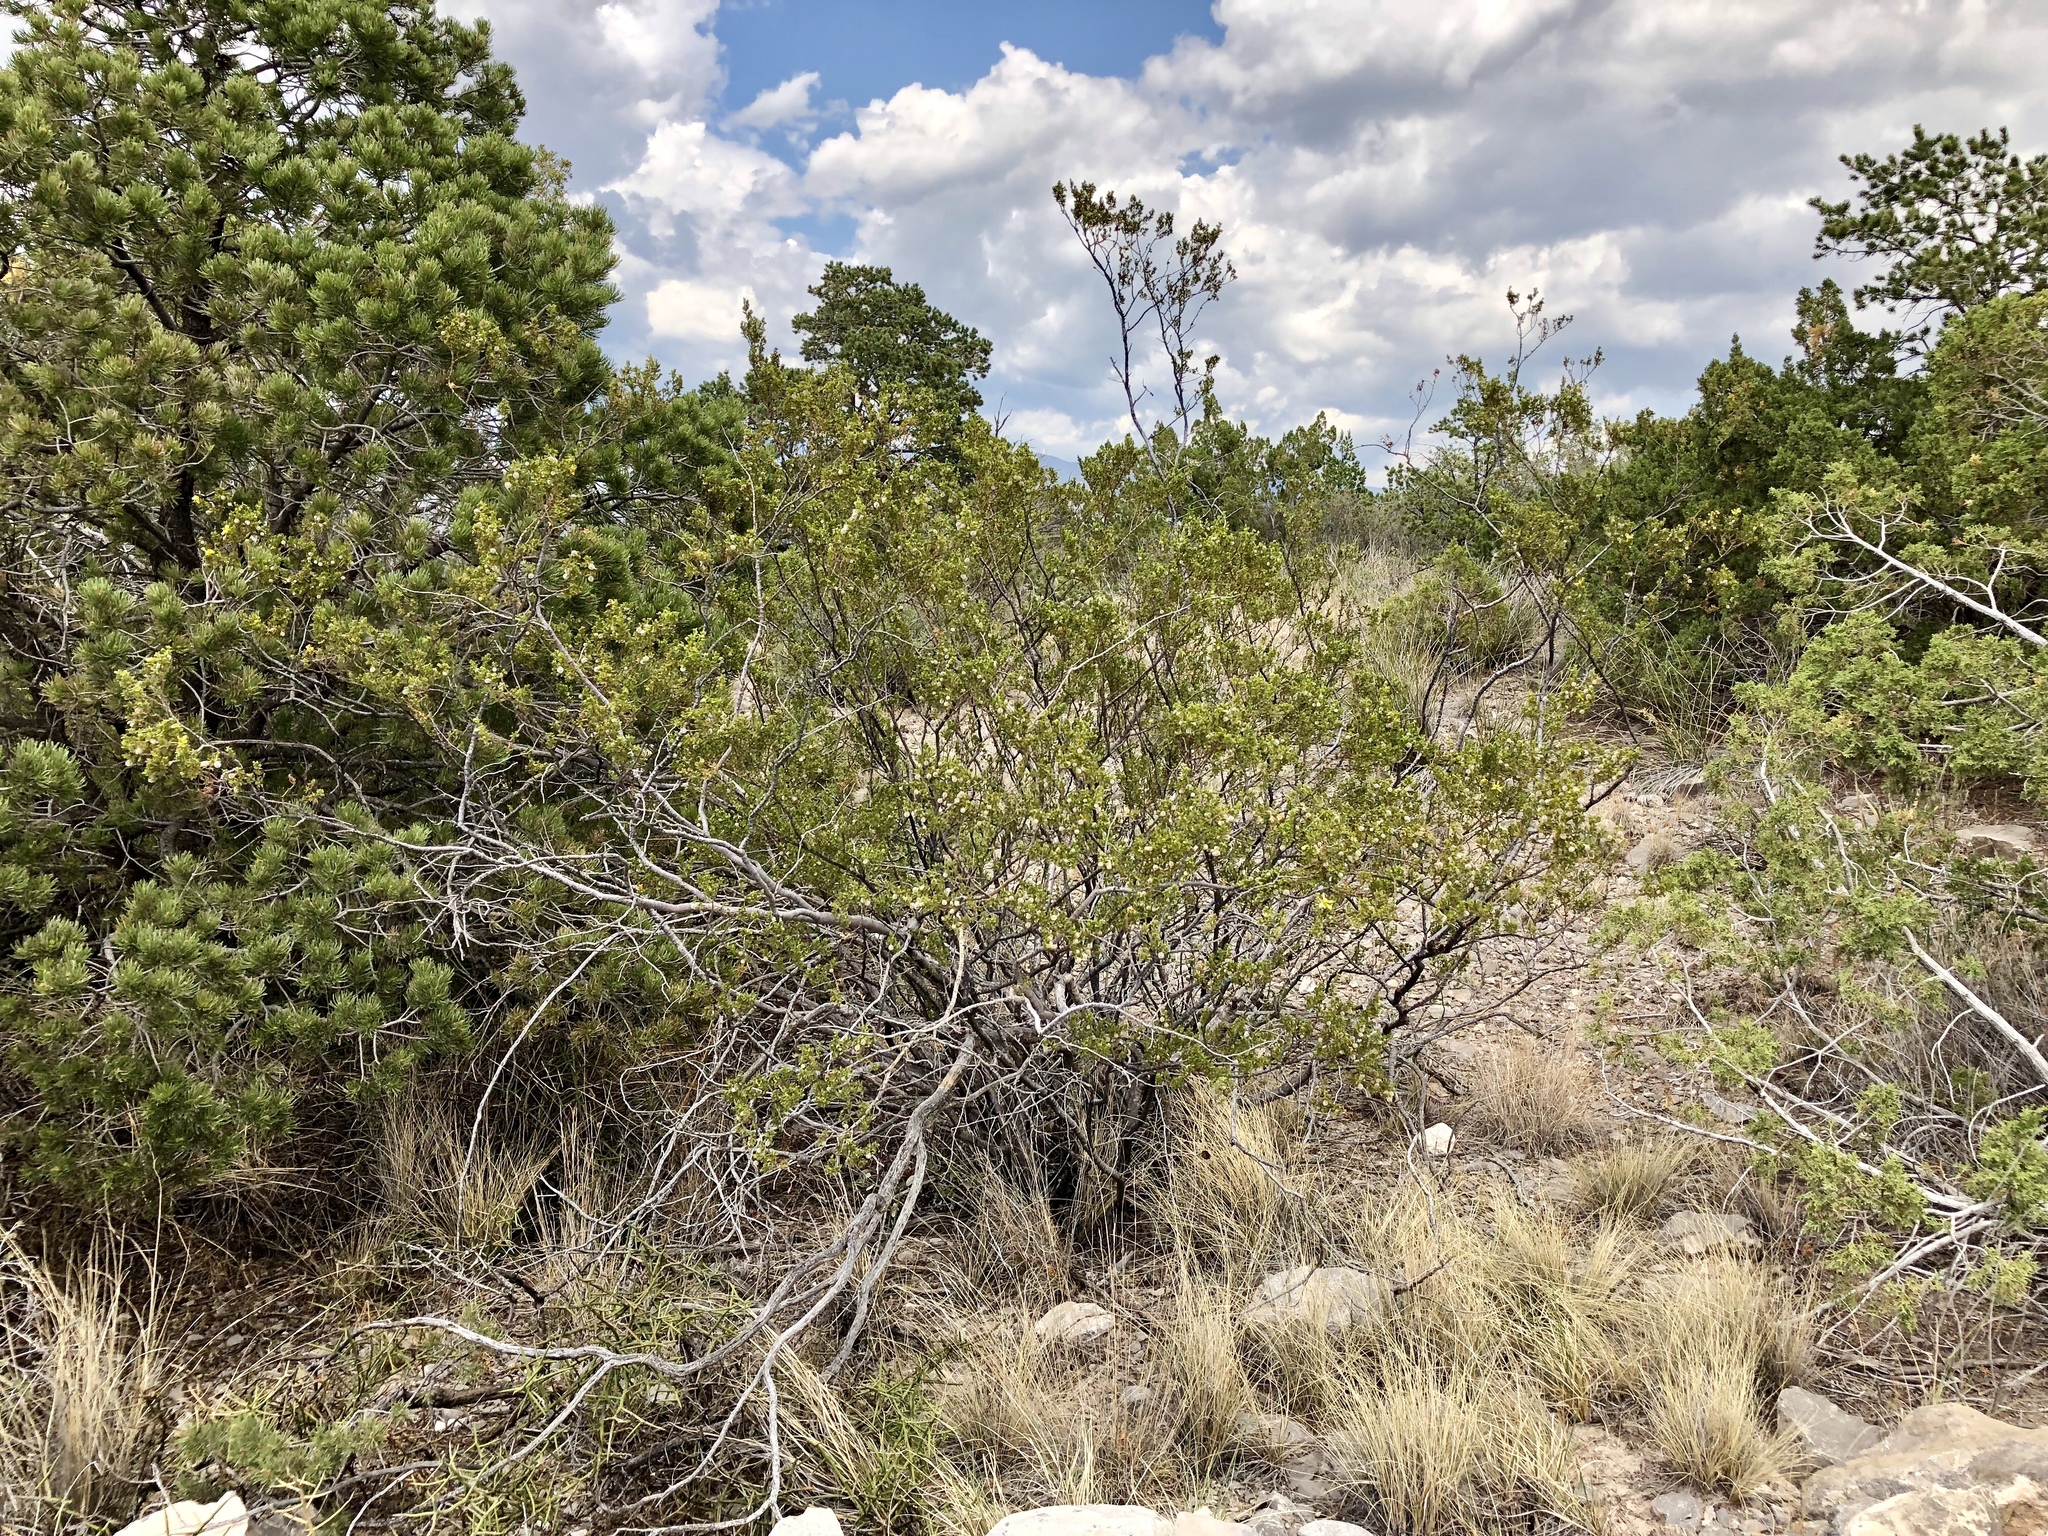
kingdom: Plantae
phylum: Tracheophyta
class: Magnoliopsida
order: Zygophyllales
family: Zygophyllaceae
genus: Larrea
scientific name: Larrea tridentata
